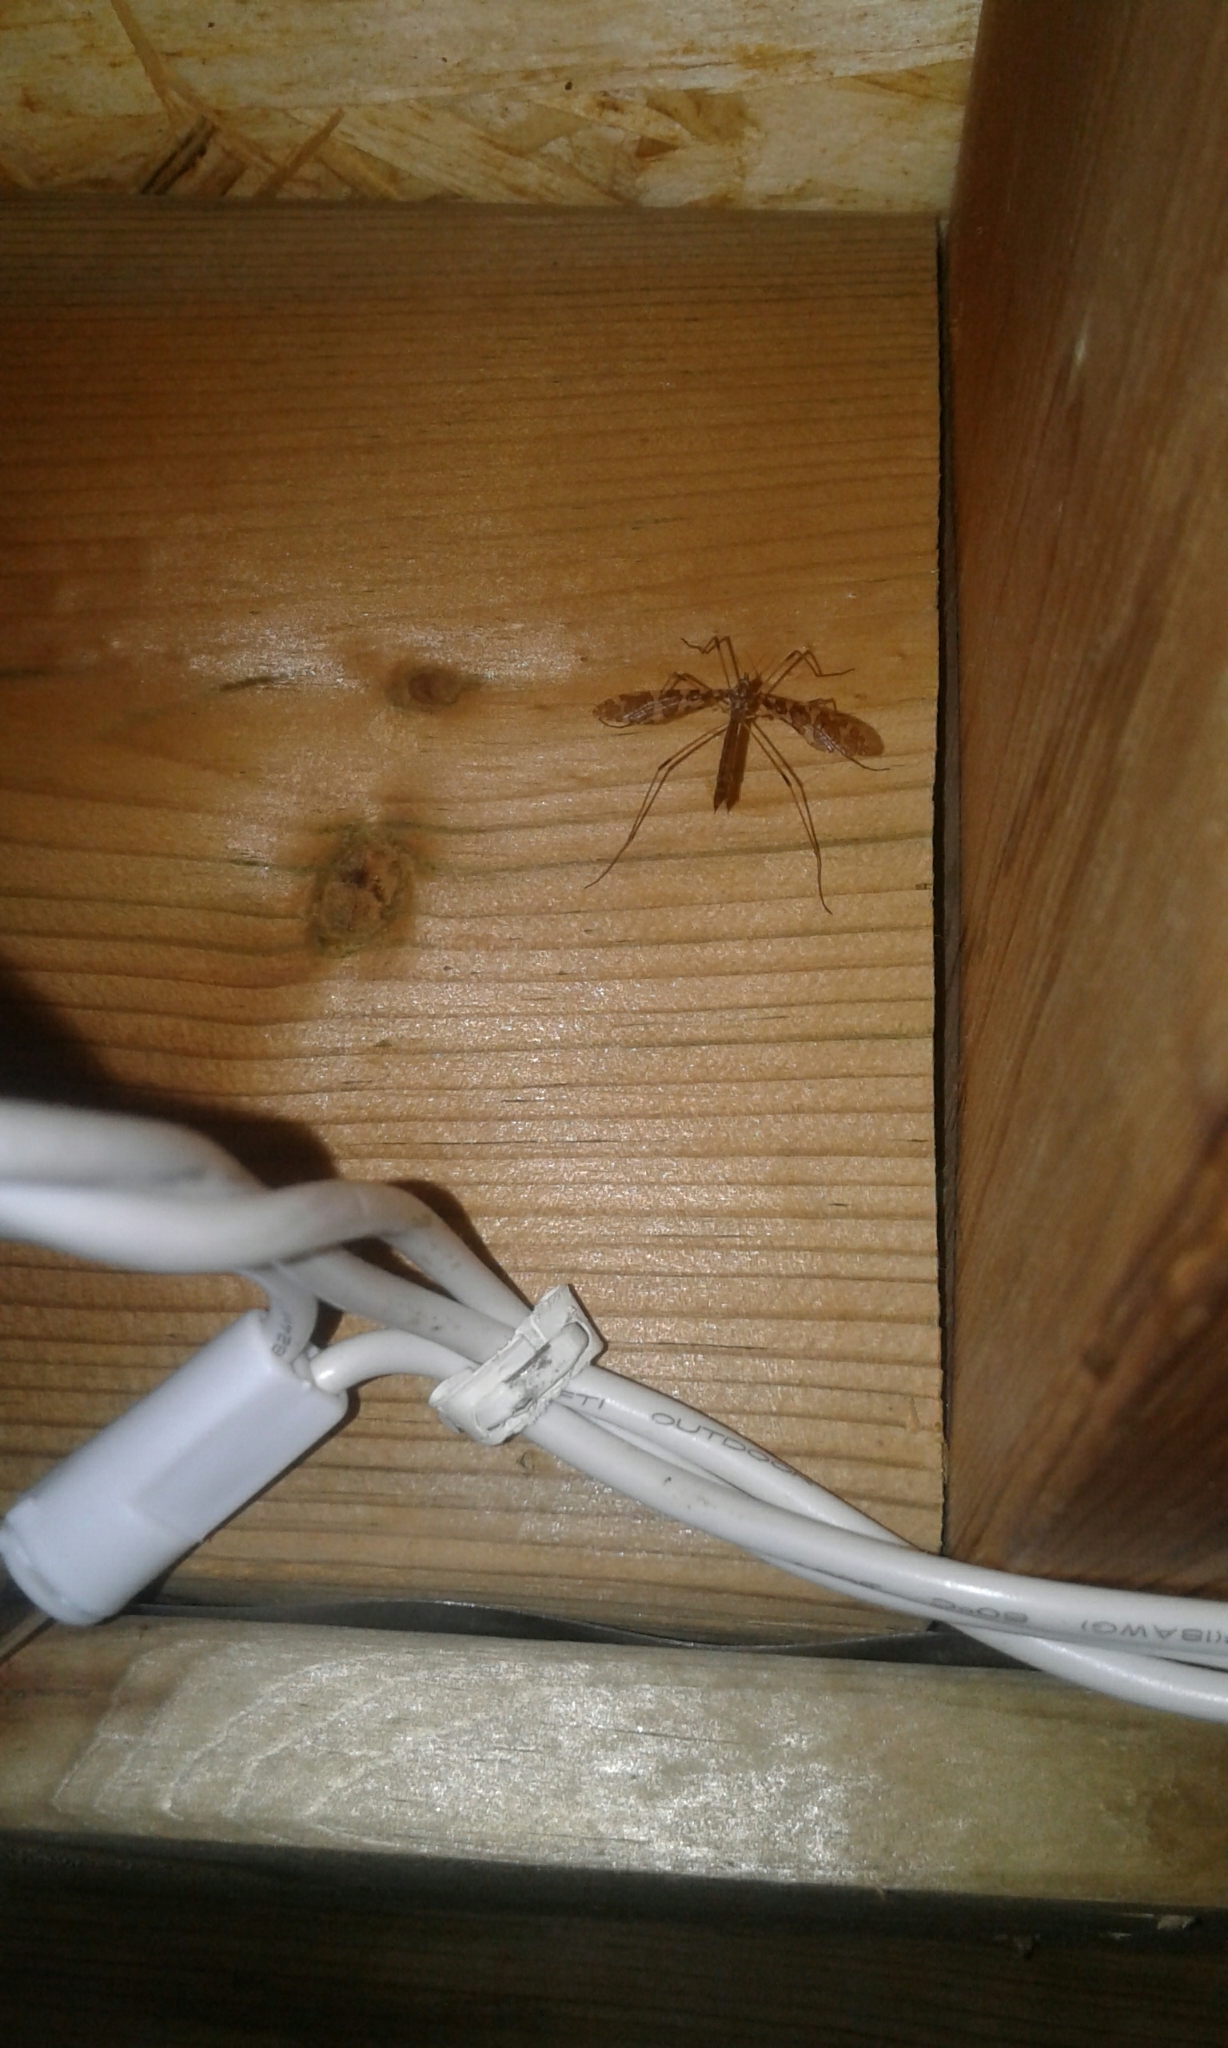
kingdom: Animalia
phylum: Arthropoda
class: Insecta
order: Diptera
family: Limoniidae
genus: Epiphragma
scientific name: Epiphragma fasciapenne
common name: Band-winged crane fly
